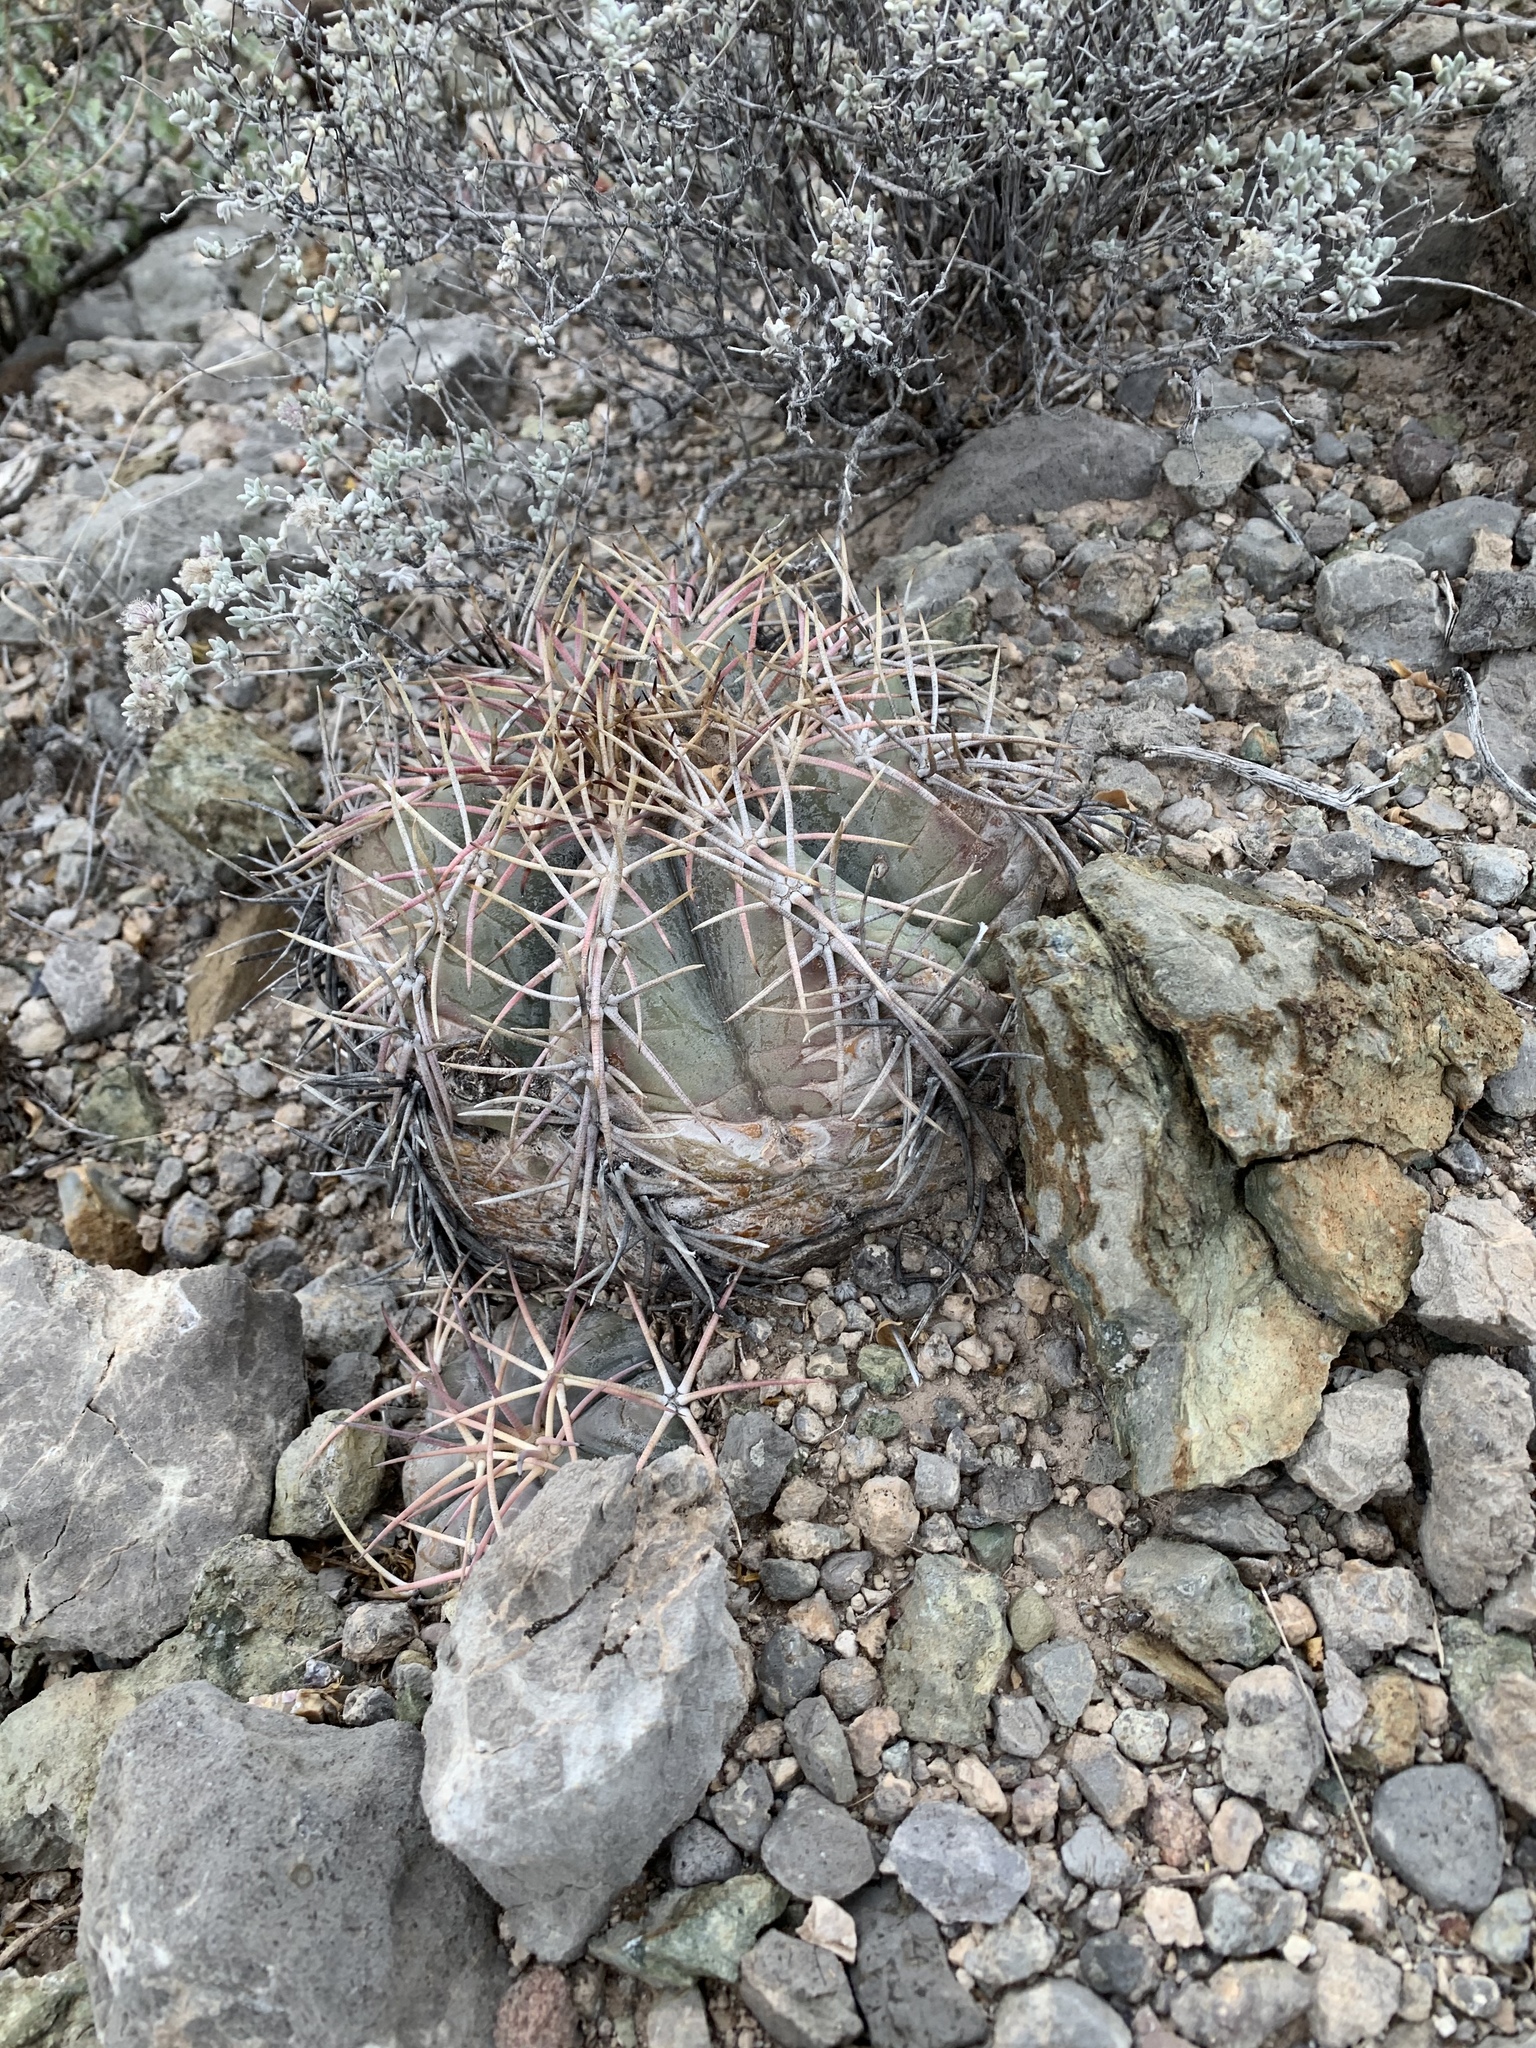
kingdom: Plantae
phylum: Tracheophyta
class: Magnoliopsida
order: Caryophyllales
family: Cactaceae
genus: Echinocactus
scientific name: Echinocactus horizonthalonius
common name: Devilshead
